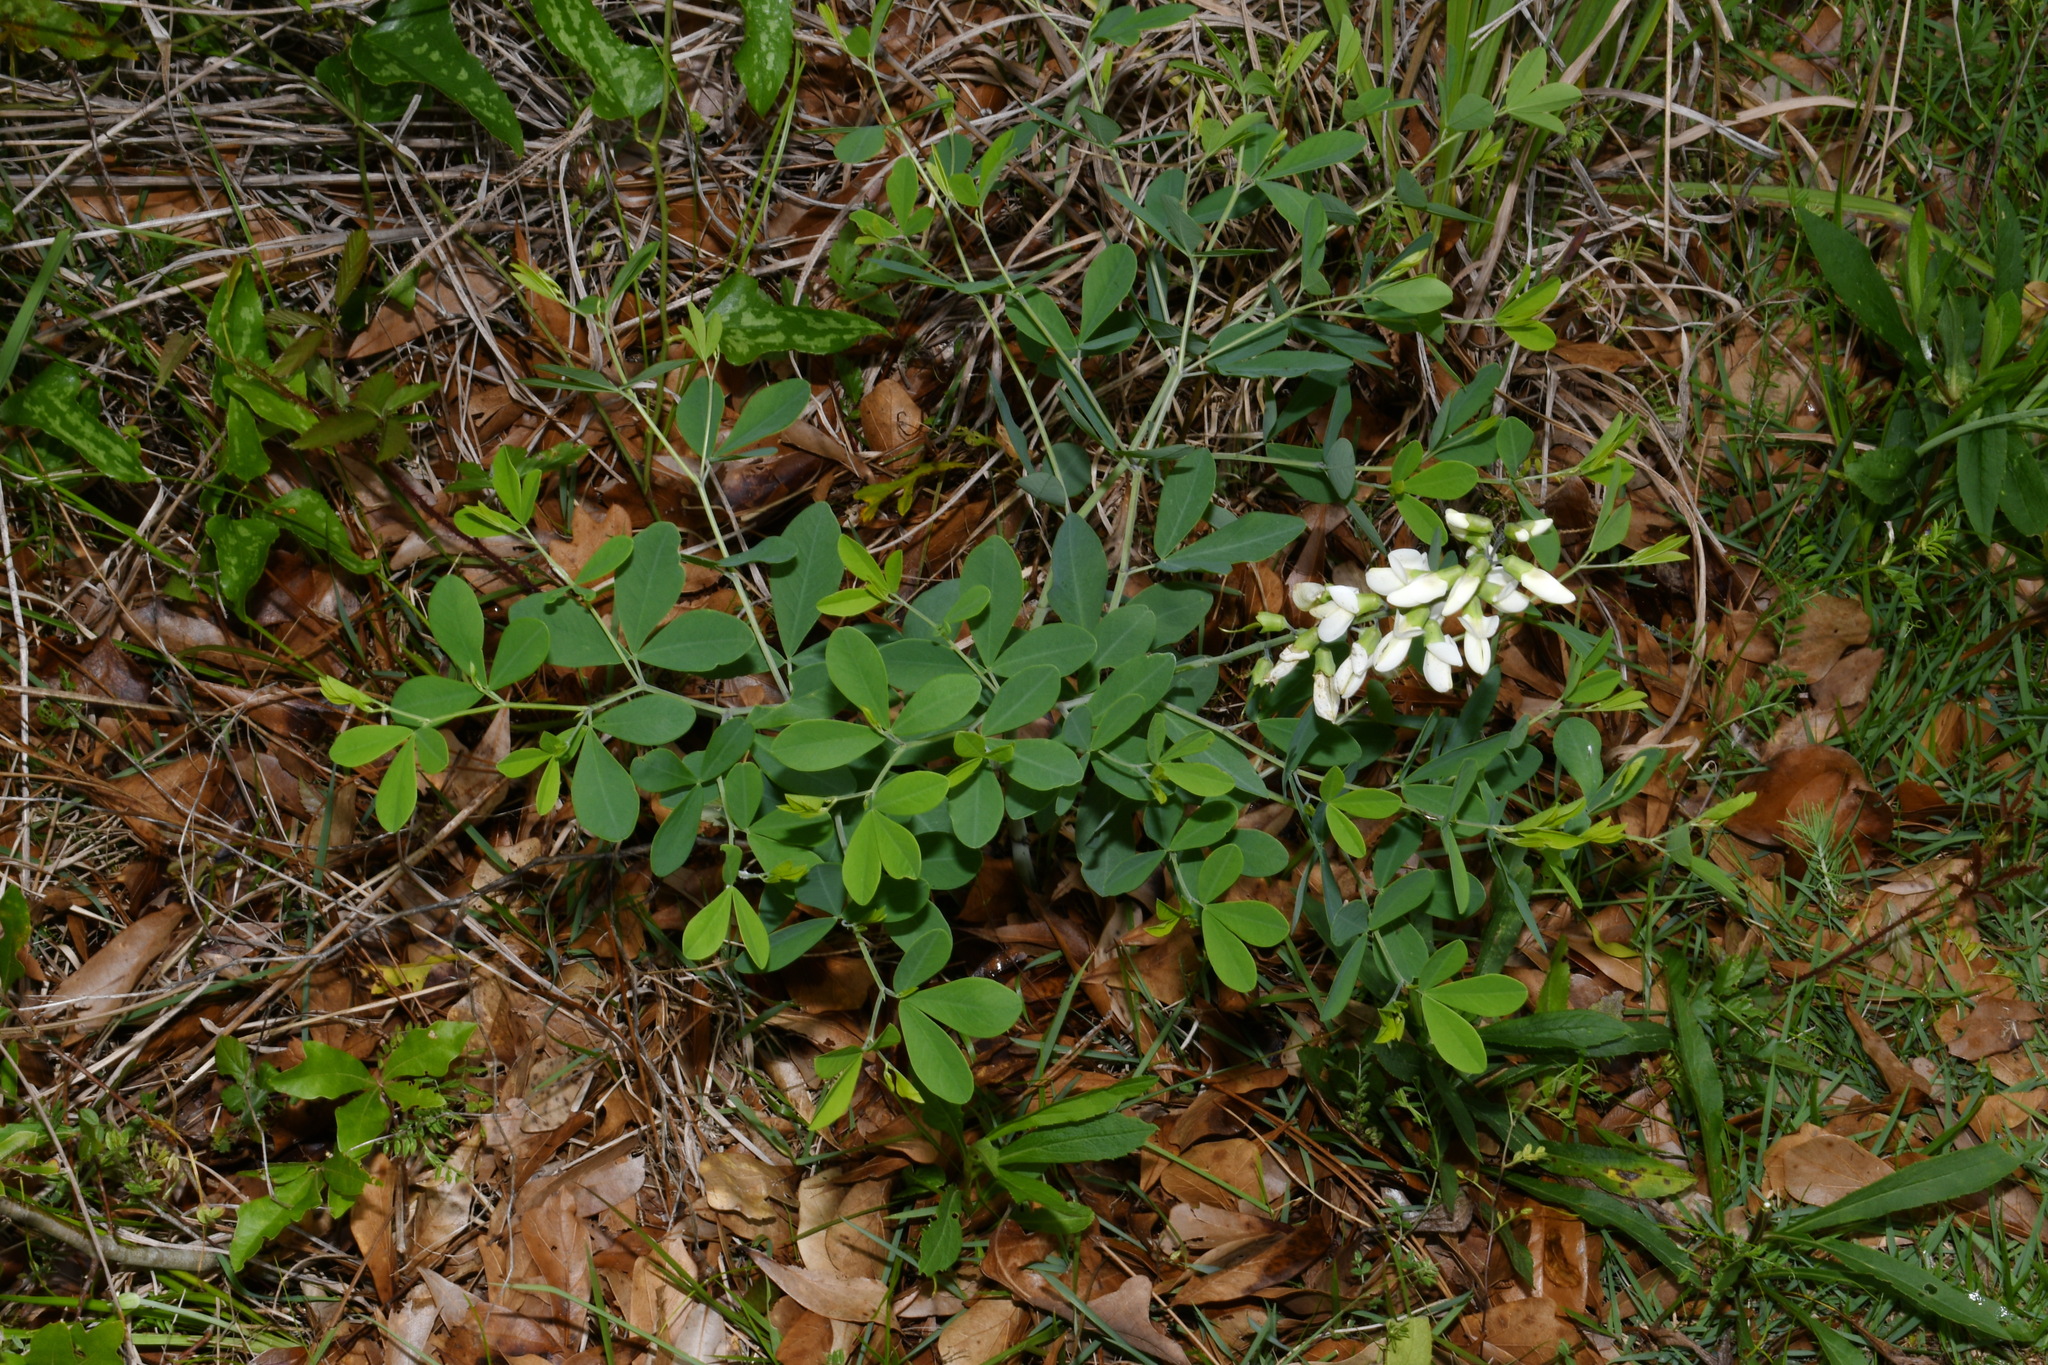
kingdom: Plantae
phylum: Tracheophyta
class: Magnoliopsida
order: Fabales
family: Fabaceae
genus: Baptisia
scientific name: Baptisia alba
